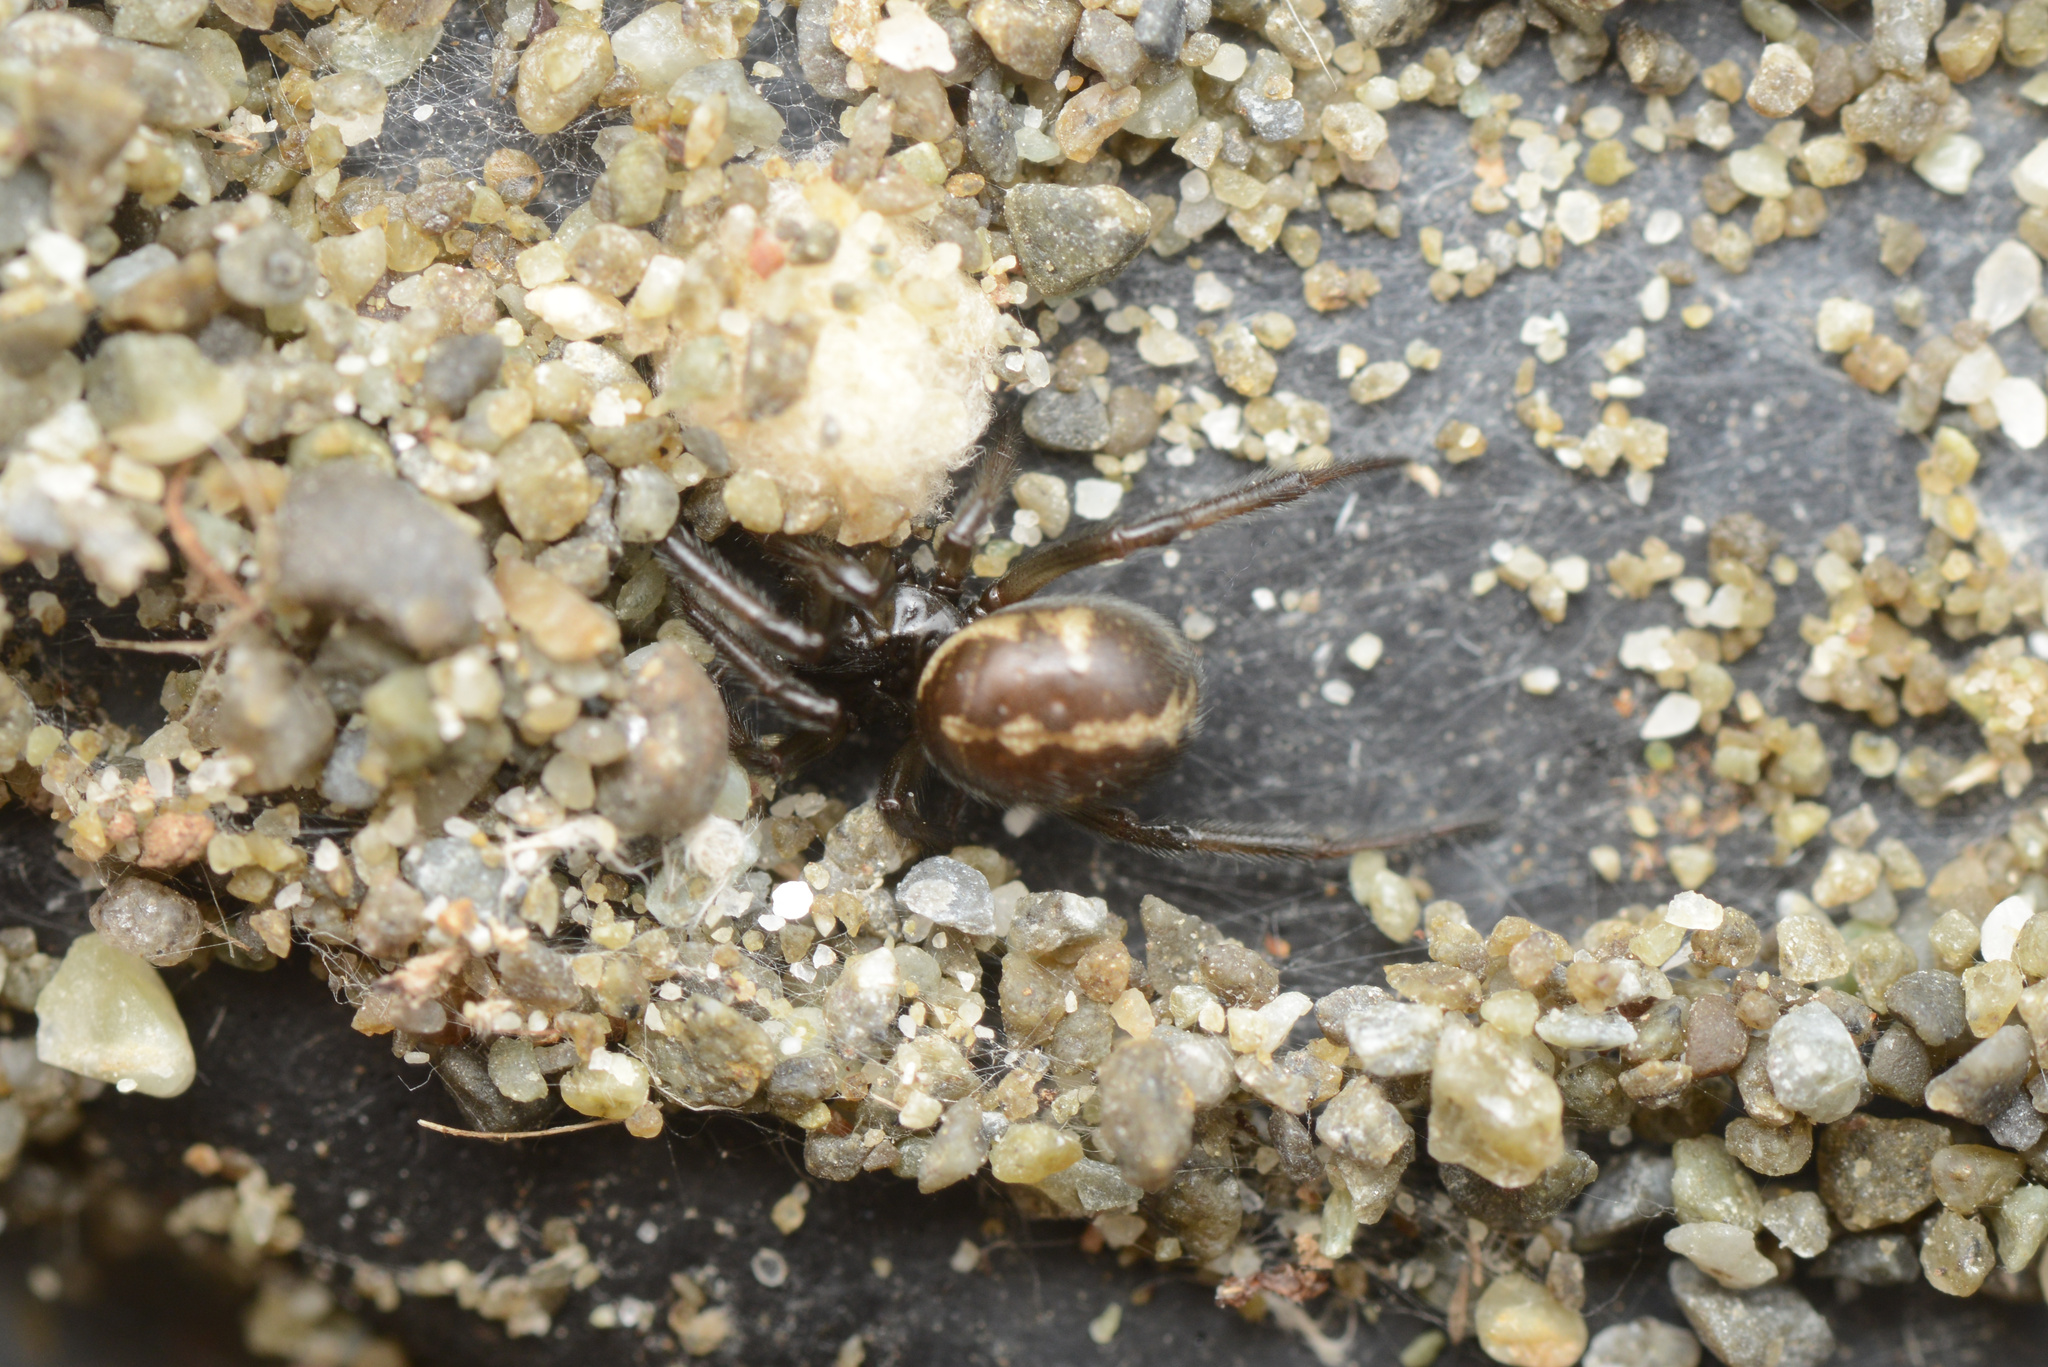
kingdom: Animalia
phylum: Arthropoda
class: Arachnida
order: Araneae
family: Theridiidae
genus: Steatoda
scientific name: Steatoda lepida
